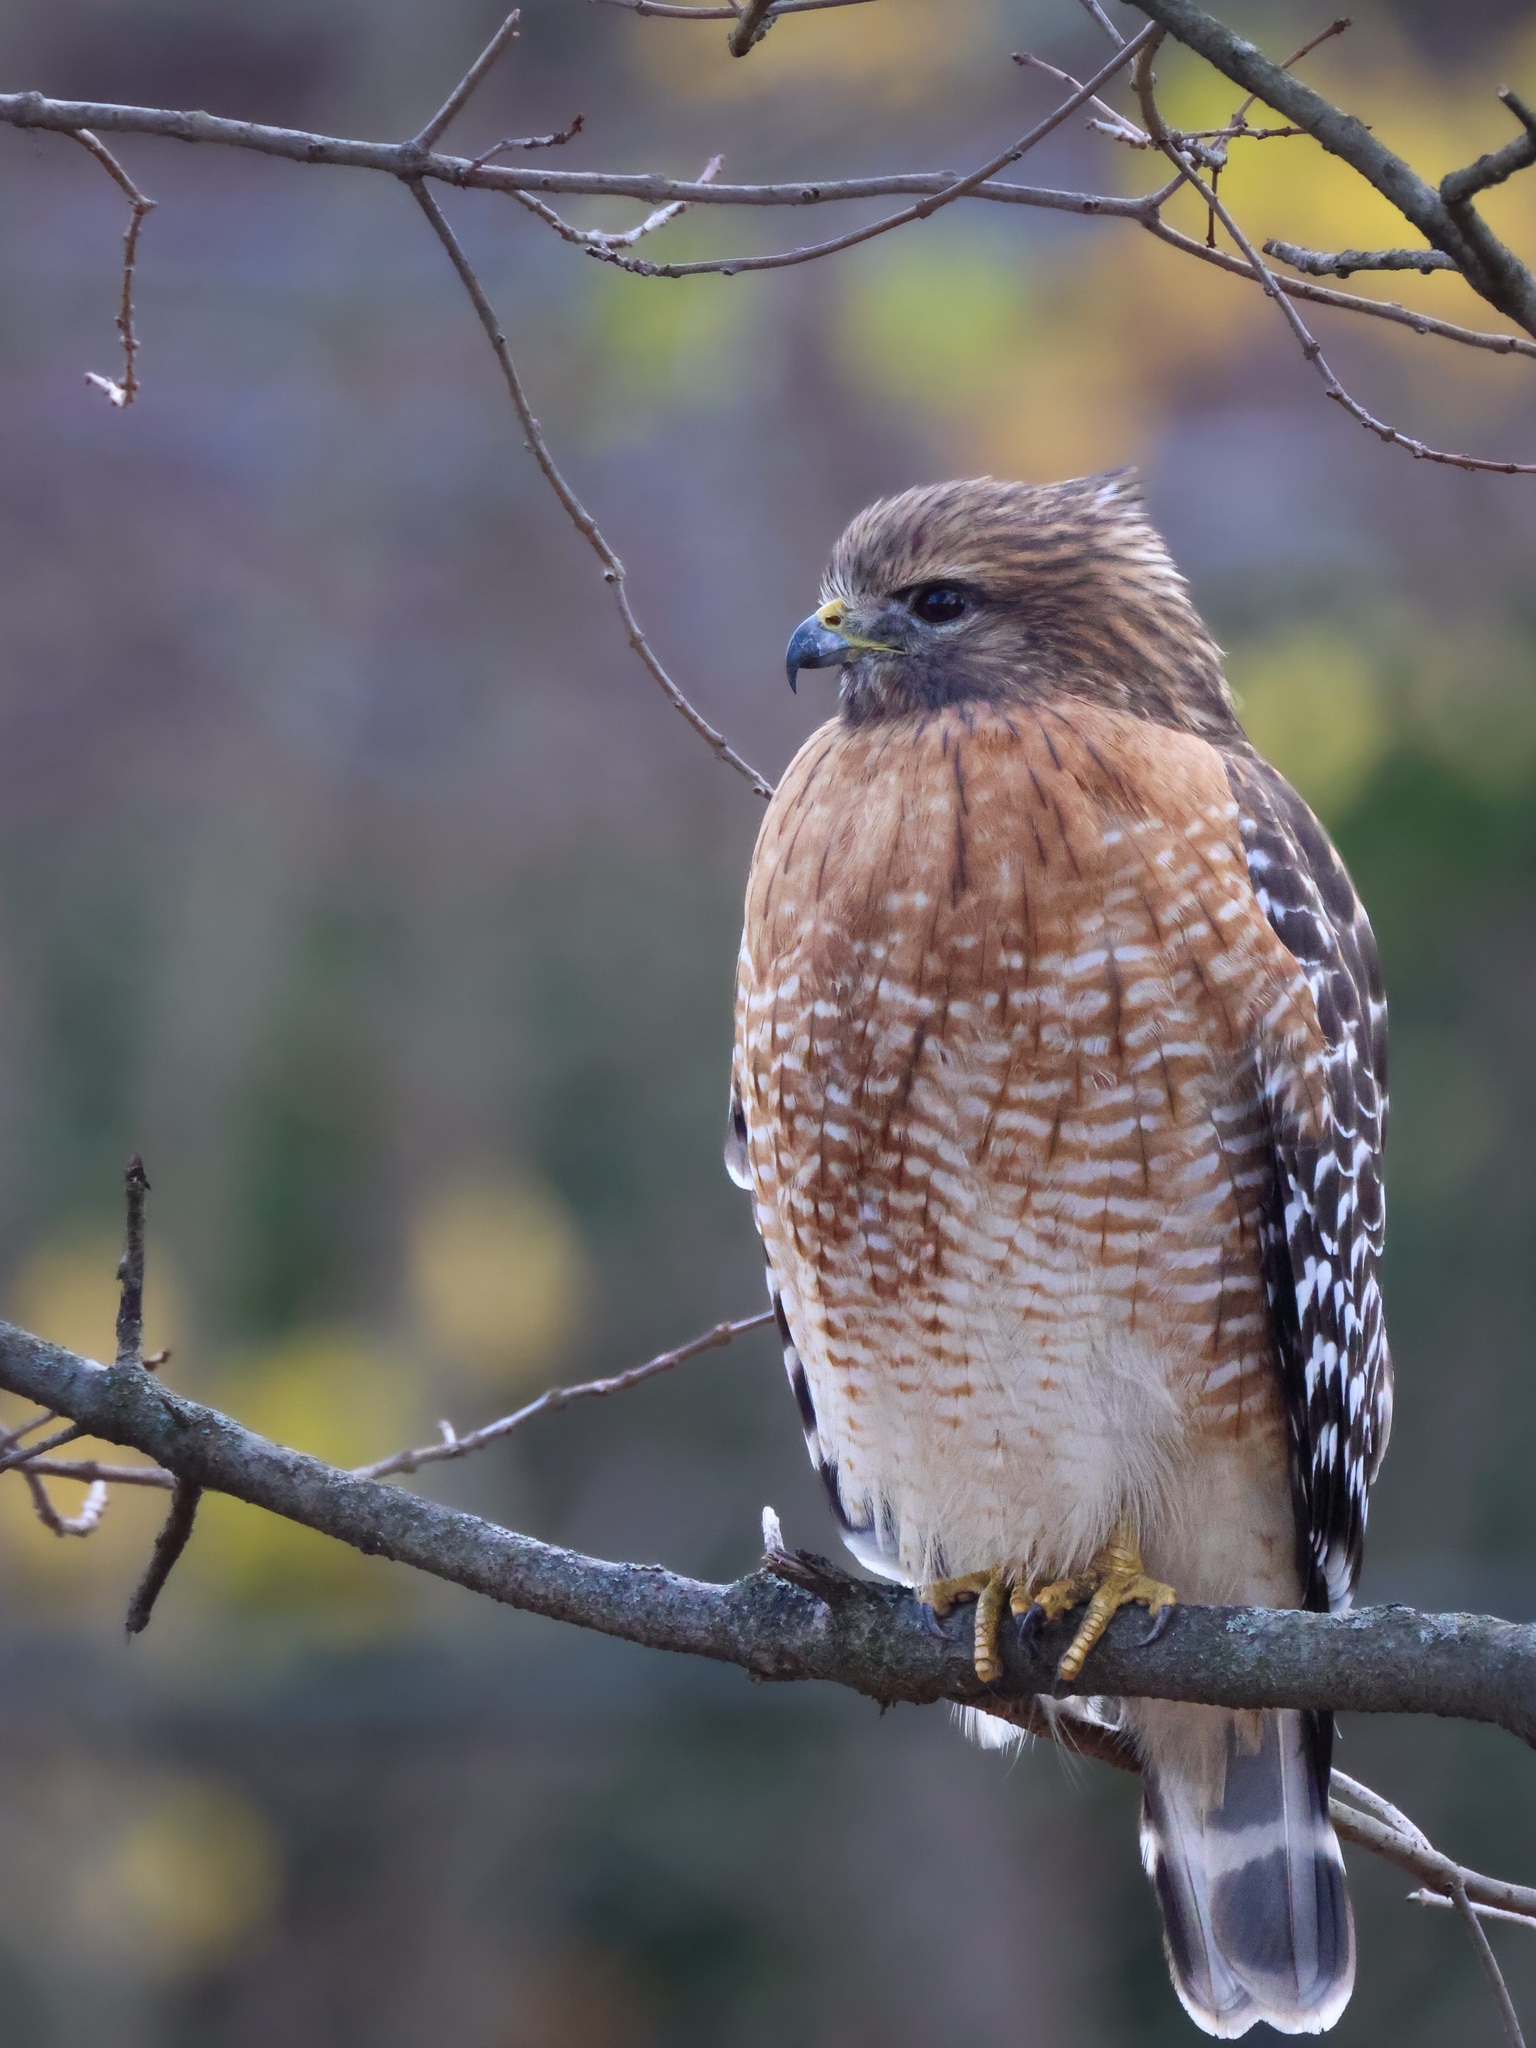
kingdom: Animalia
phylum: Chordata
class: Aves
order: Accipitriformes
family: Accipitridae
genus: Buteo
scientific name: Buteo lineatus
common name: Red-shouldered hawk
